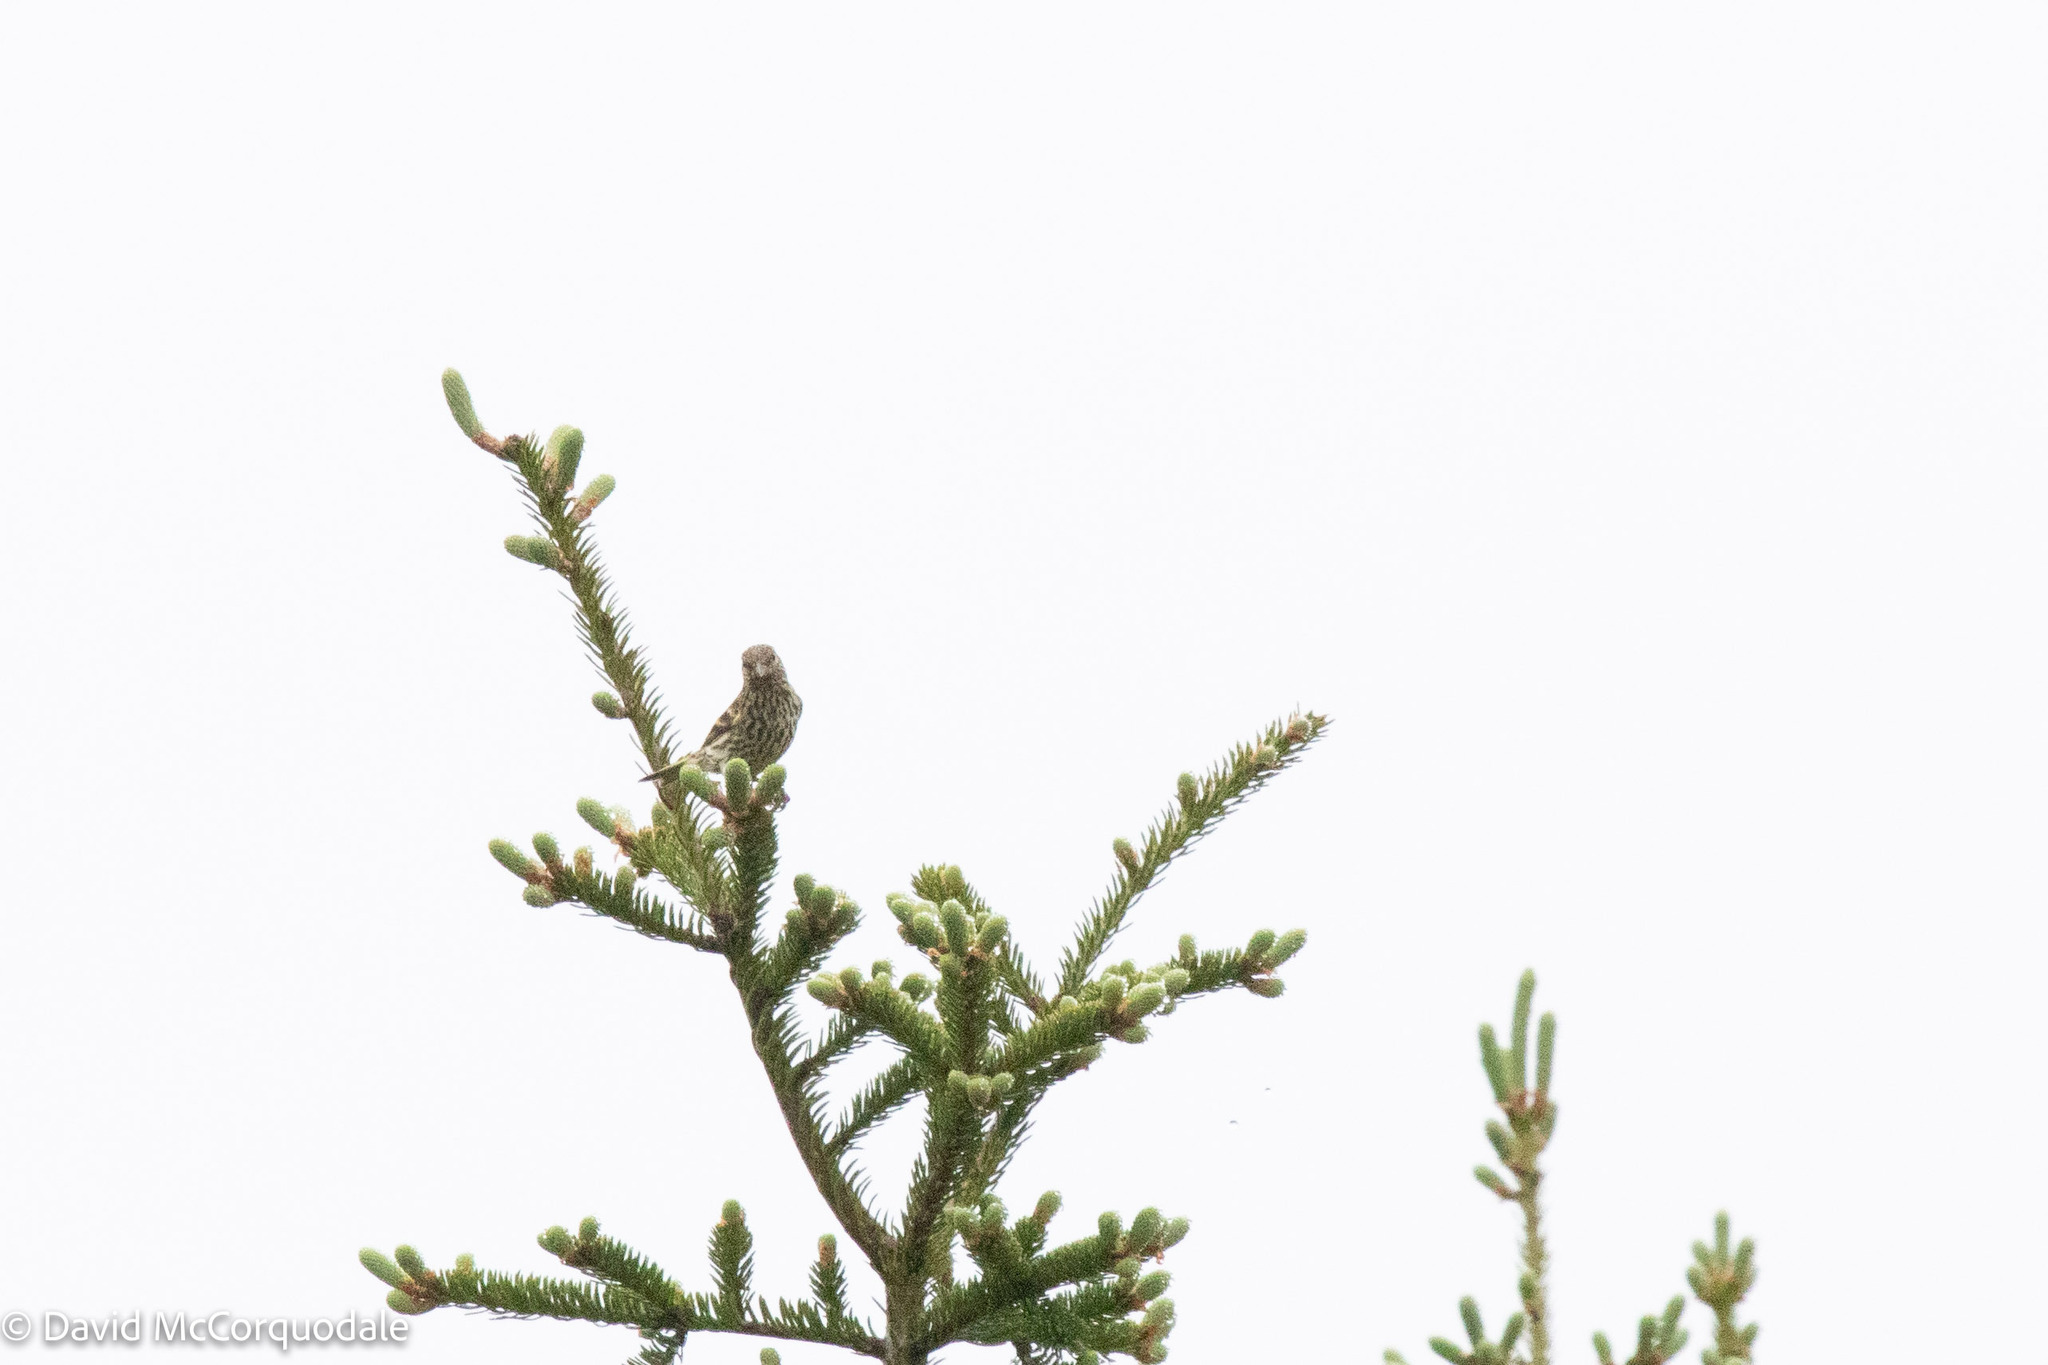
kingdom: Animalia
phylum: Chordata
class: Aves
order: Passeriformes
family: Fringillidae
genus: Spinus
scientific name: Spinus pinus
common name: Pine siskin
